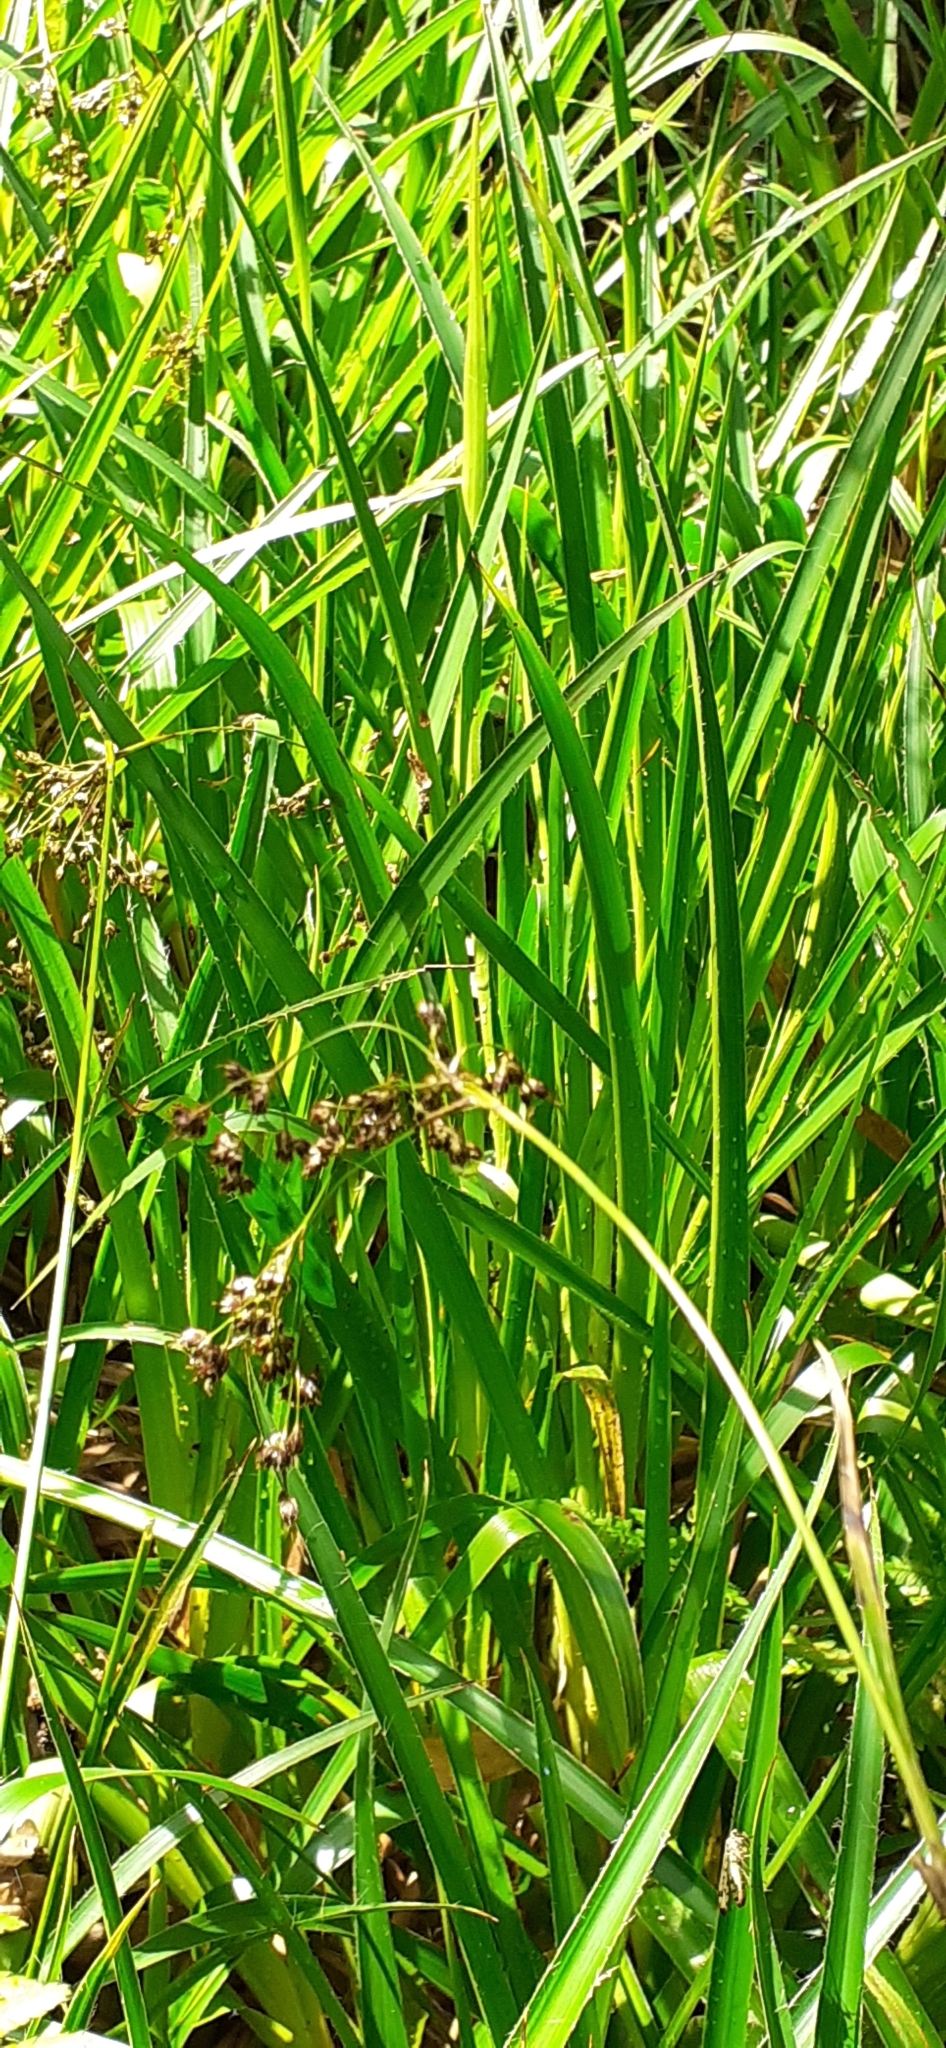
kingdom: Plantae
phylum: Tracheophyta
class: Liliopsida
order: Poales
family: Juncaceae
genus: Luzula
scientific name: Luzula sylvatica
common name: Great wood-rush
